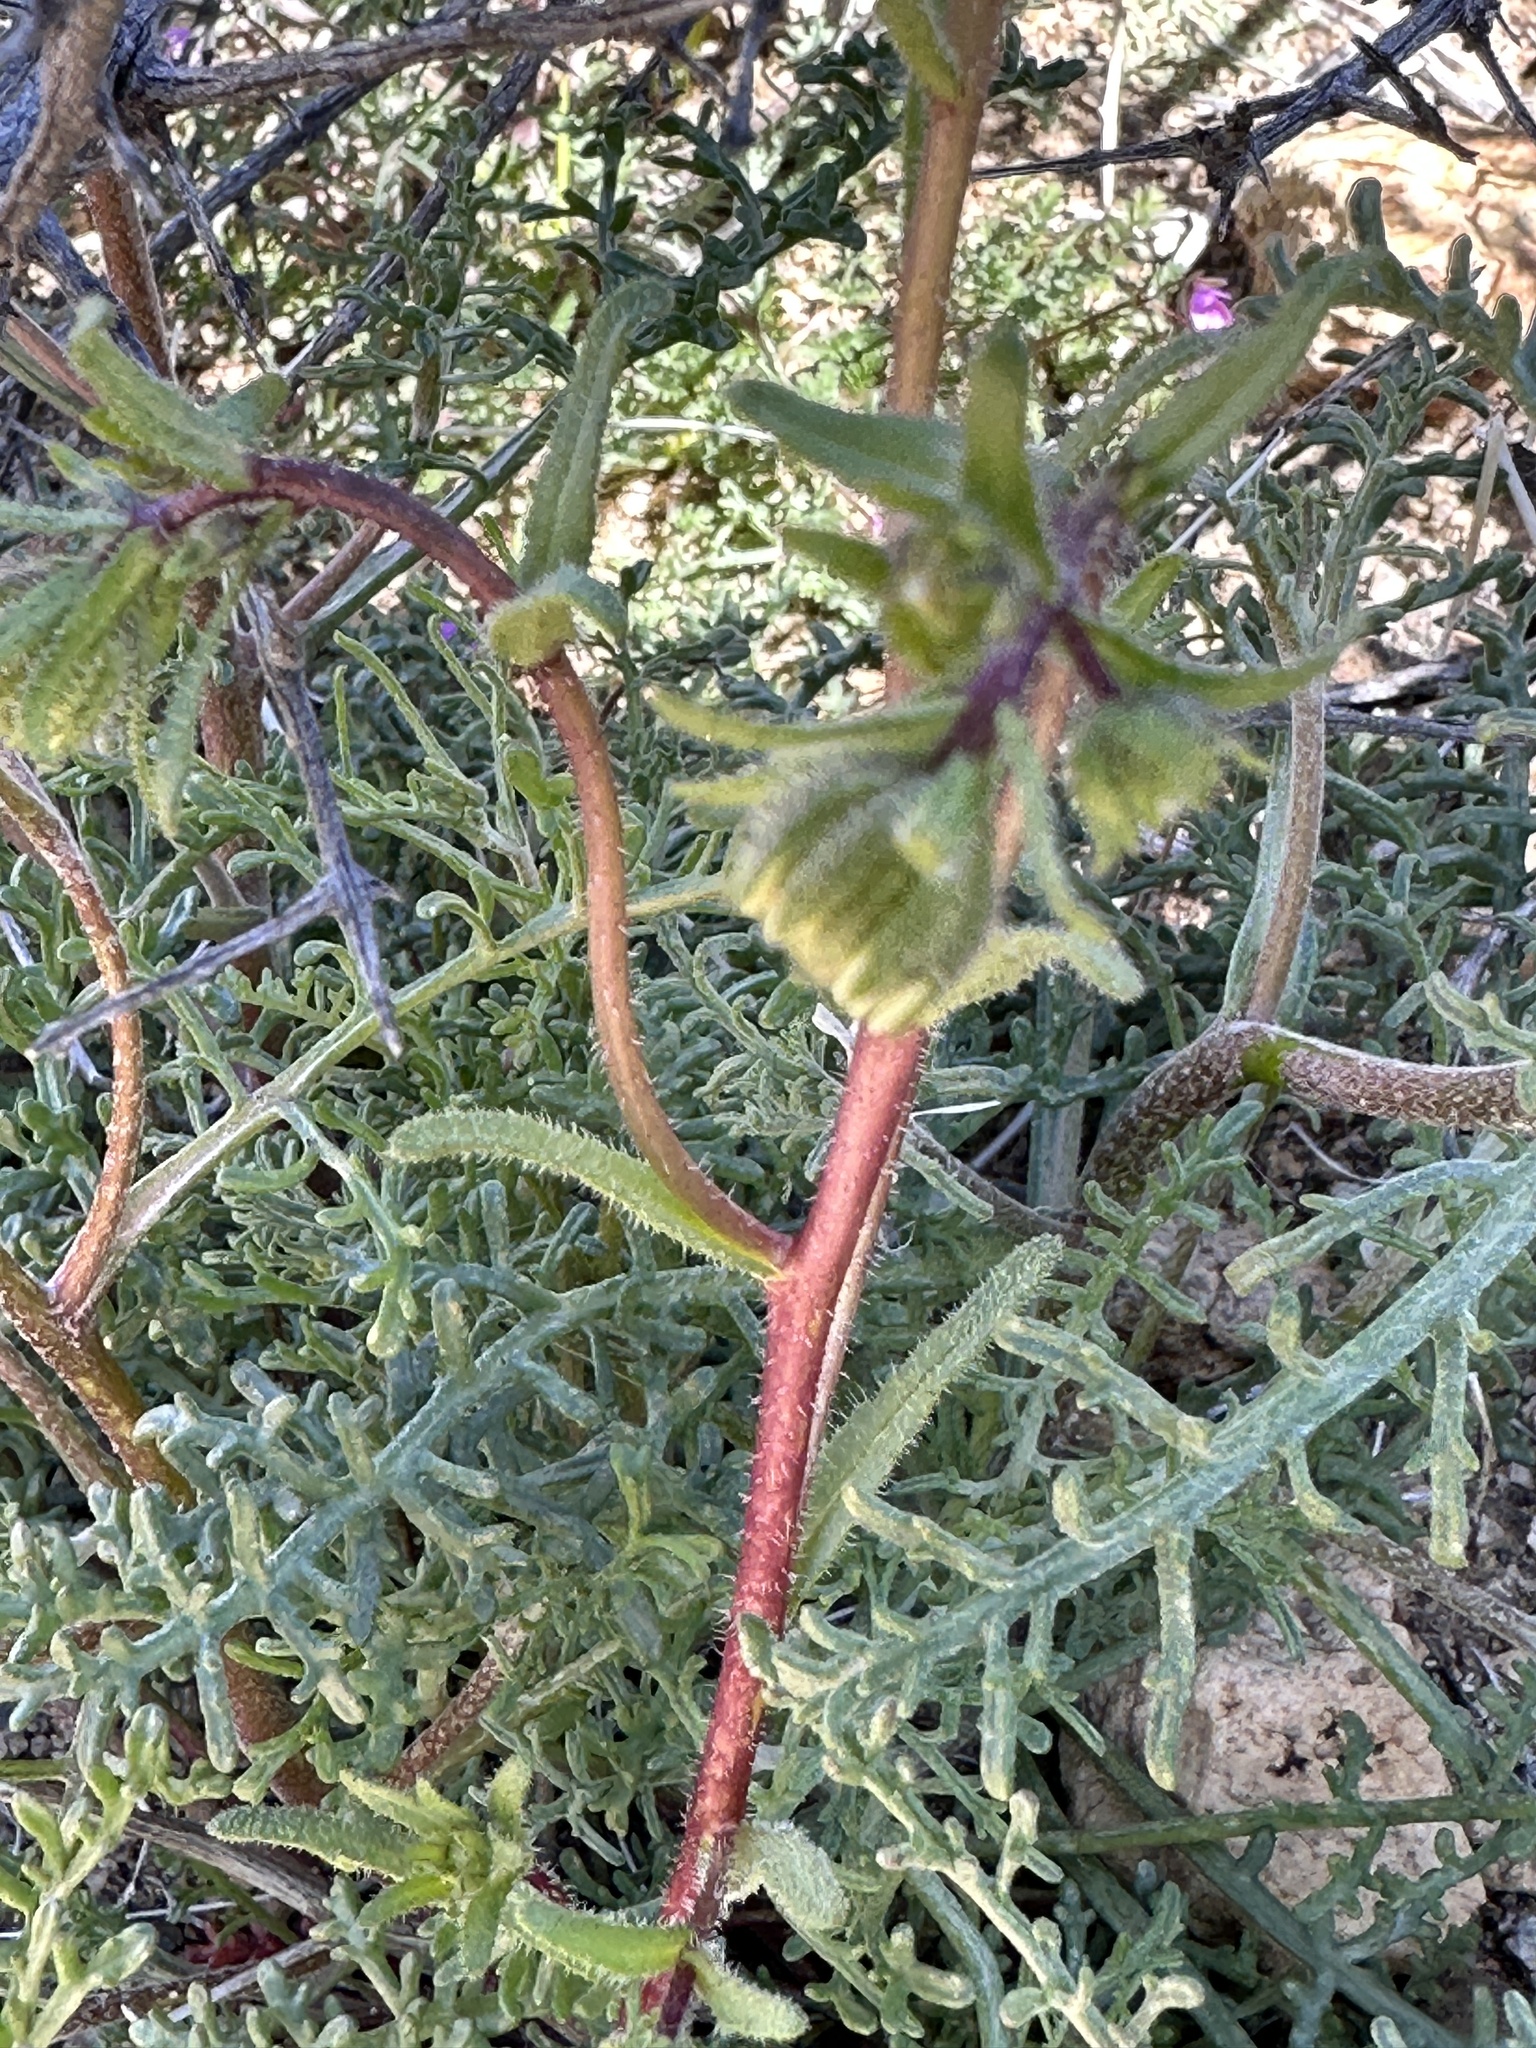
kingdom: Plantae
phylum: Tracheophyta
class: Magnoliopsida
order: Asterales
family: Asteraceae
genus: Layia
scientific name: Layia glandulosa
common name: White layia
